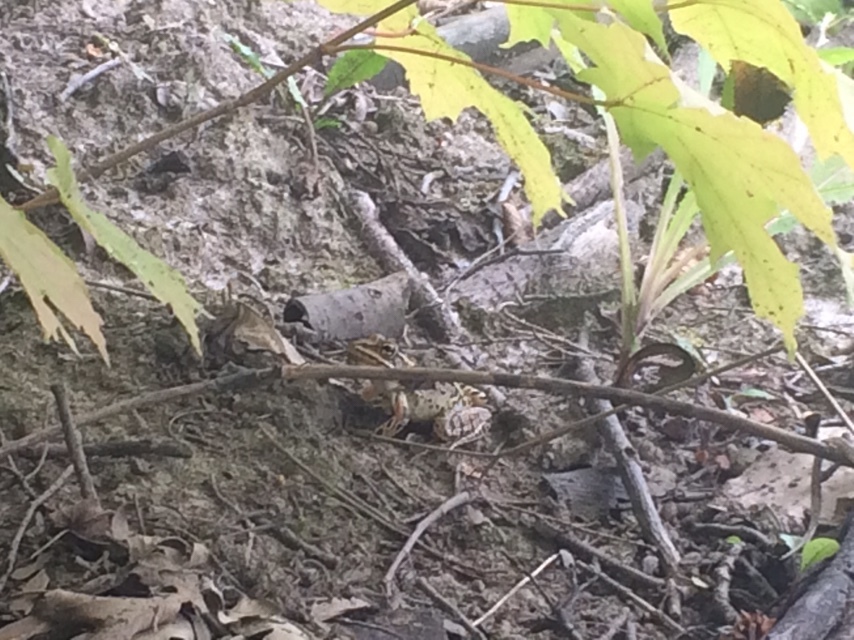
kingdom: Animalia
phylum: Chordata
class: Amphibia
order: Anura
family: Ranidae
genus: Lithobates
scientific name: Lithobates pipiens
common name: Northern leopard frog
